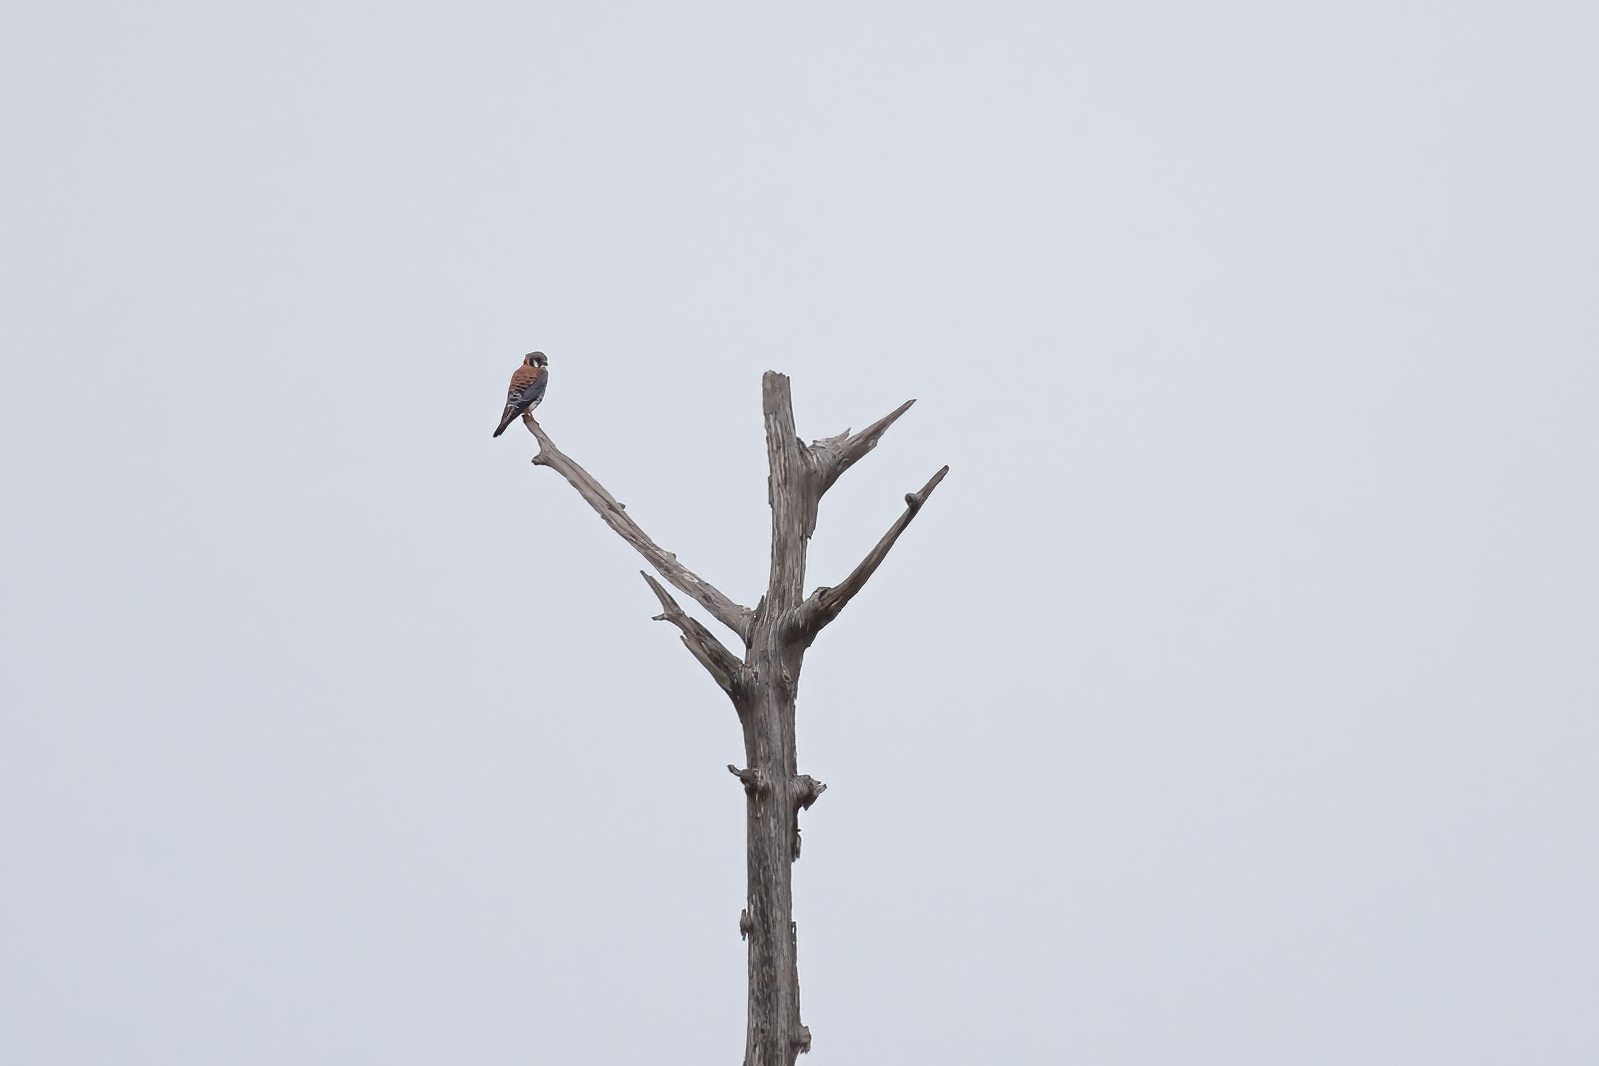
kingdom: Animalia
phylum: Chordata
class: Aves
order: Falconiformes
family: Falconidae
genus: Falco
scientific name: Falco sparverius
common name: American kestrel
